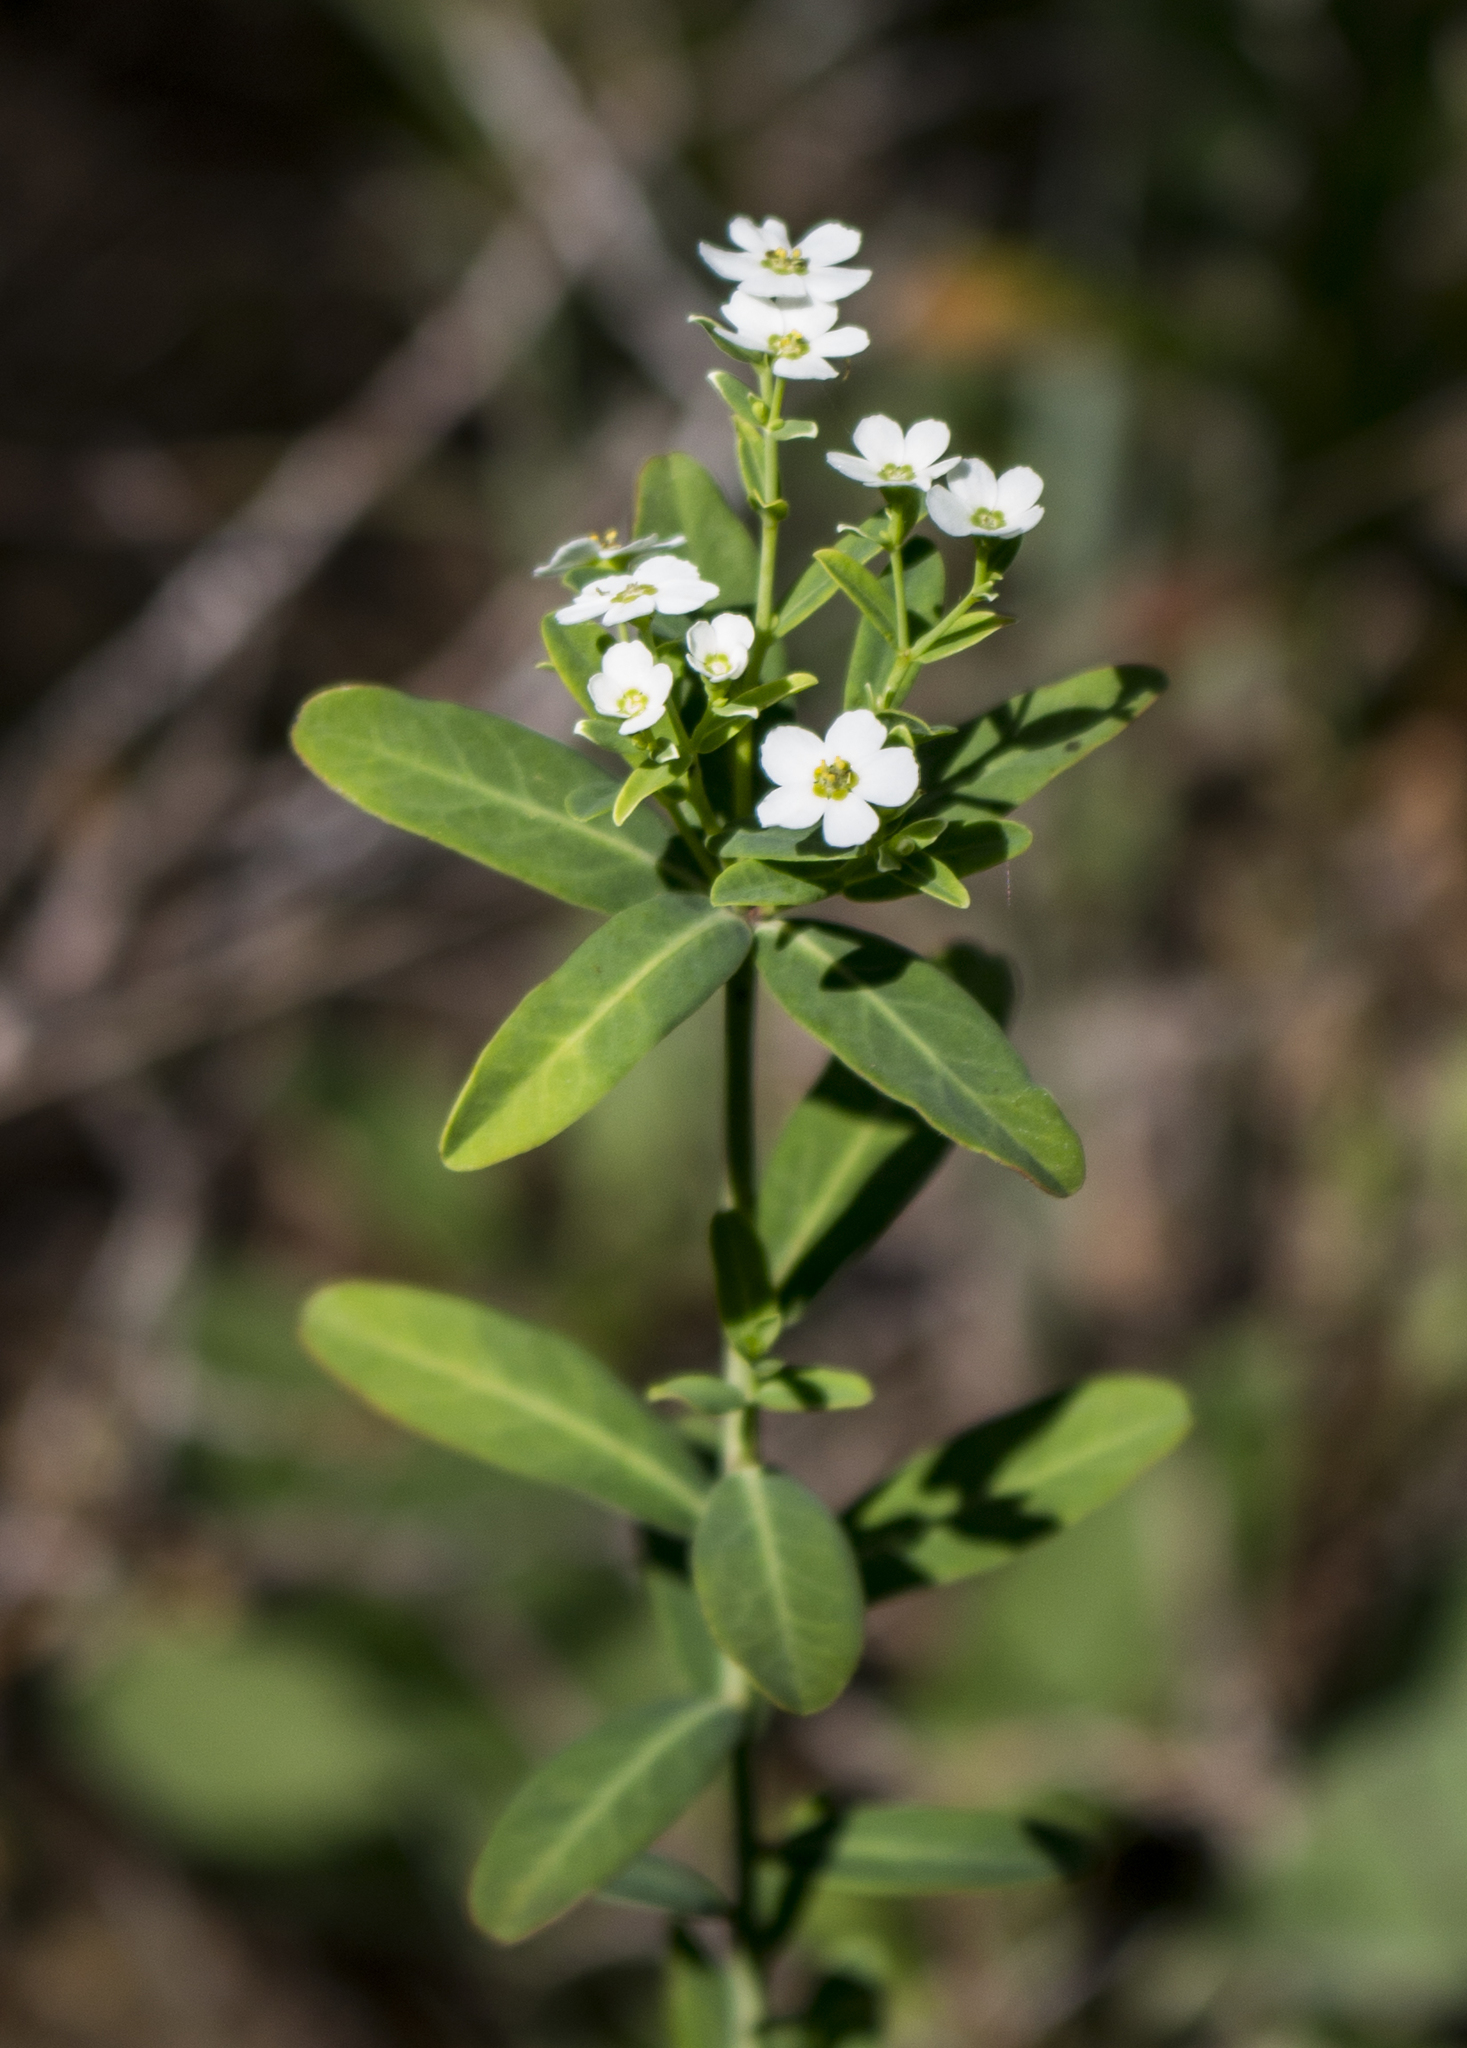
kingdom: Plantae
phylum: Tracheophyta
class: Magnoliopsida
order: Malpighiales
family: Euphorbiaceae
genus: Euphorbia
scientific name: Euphorbia corollata
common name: Flowering spurge
